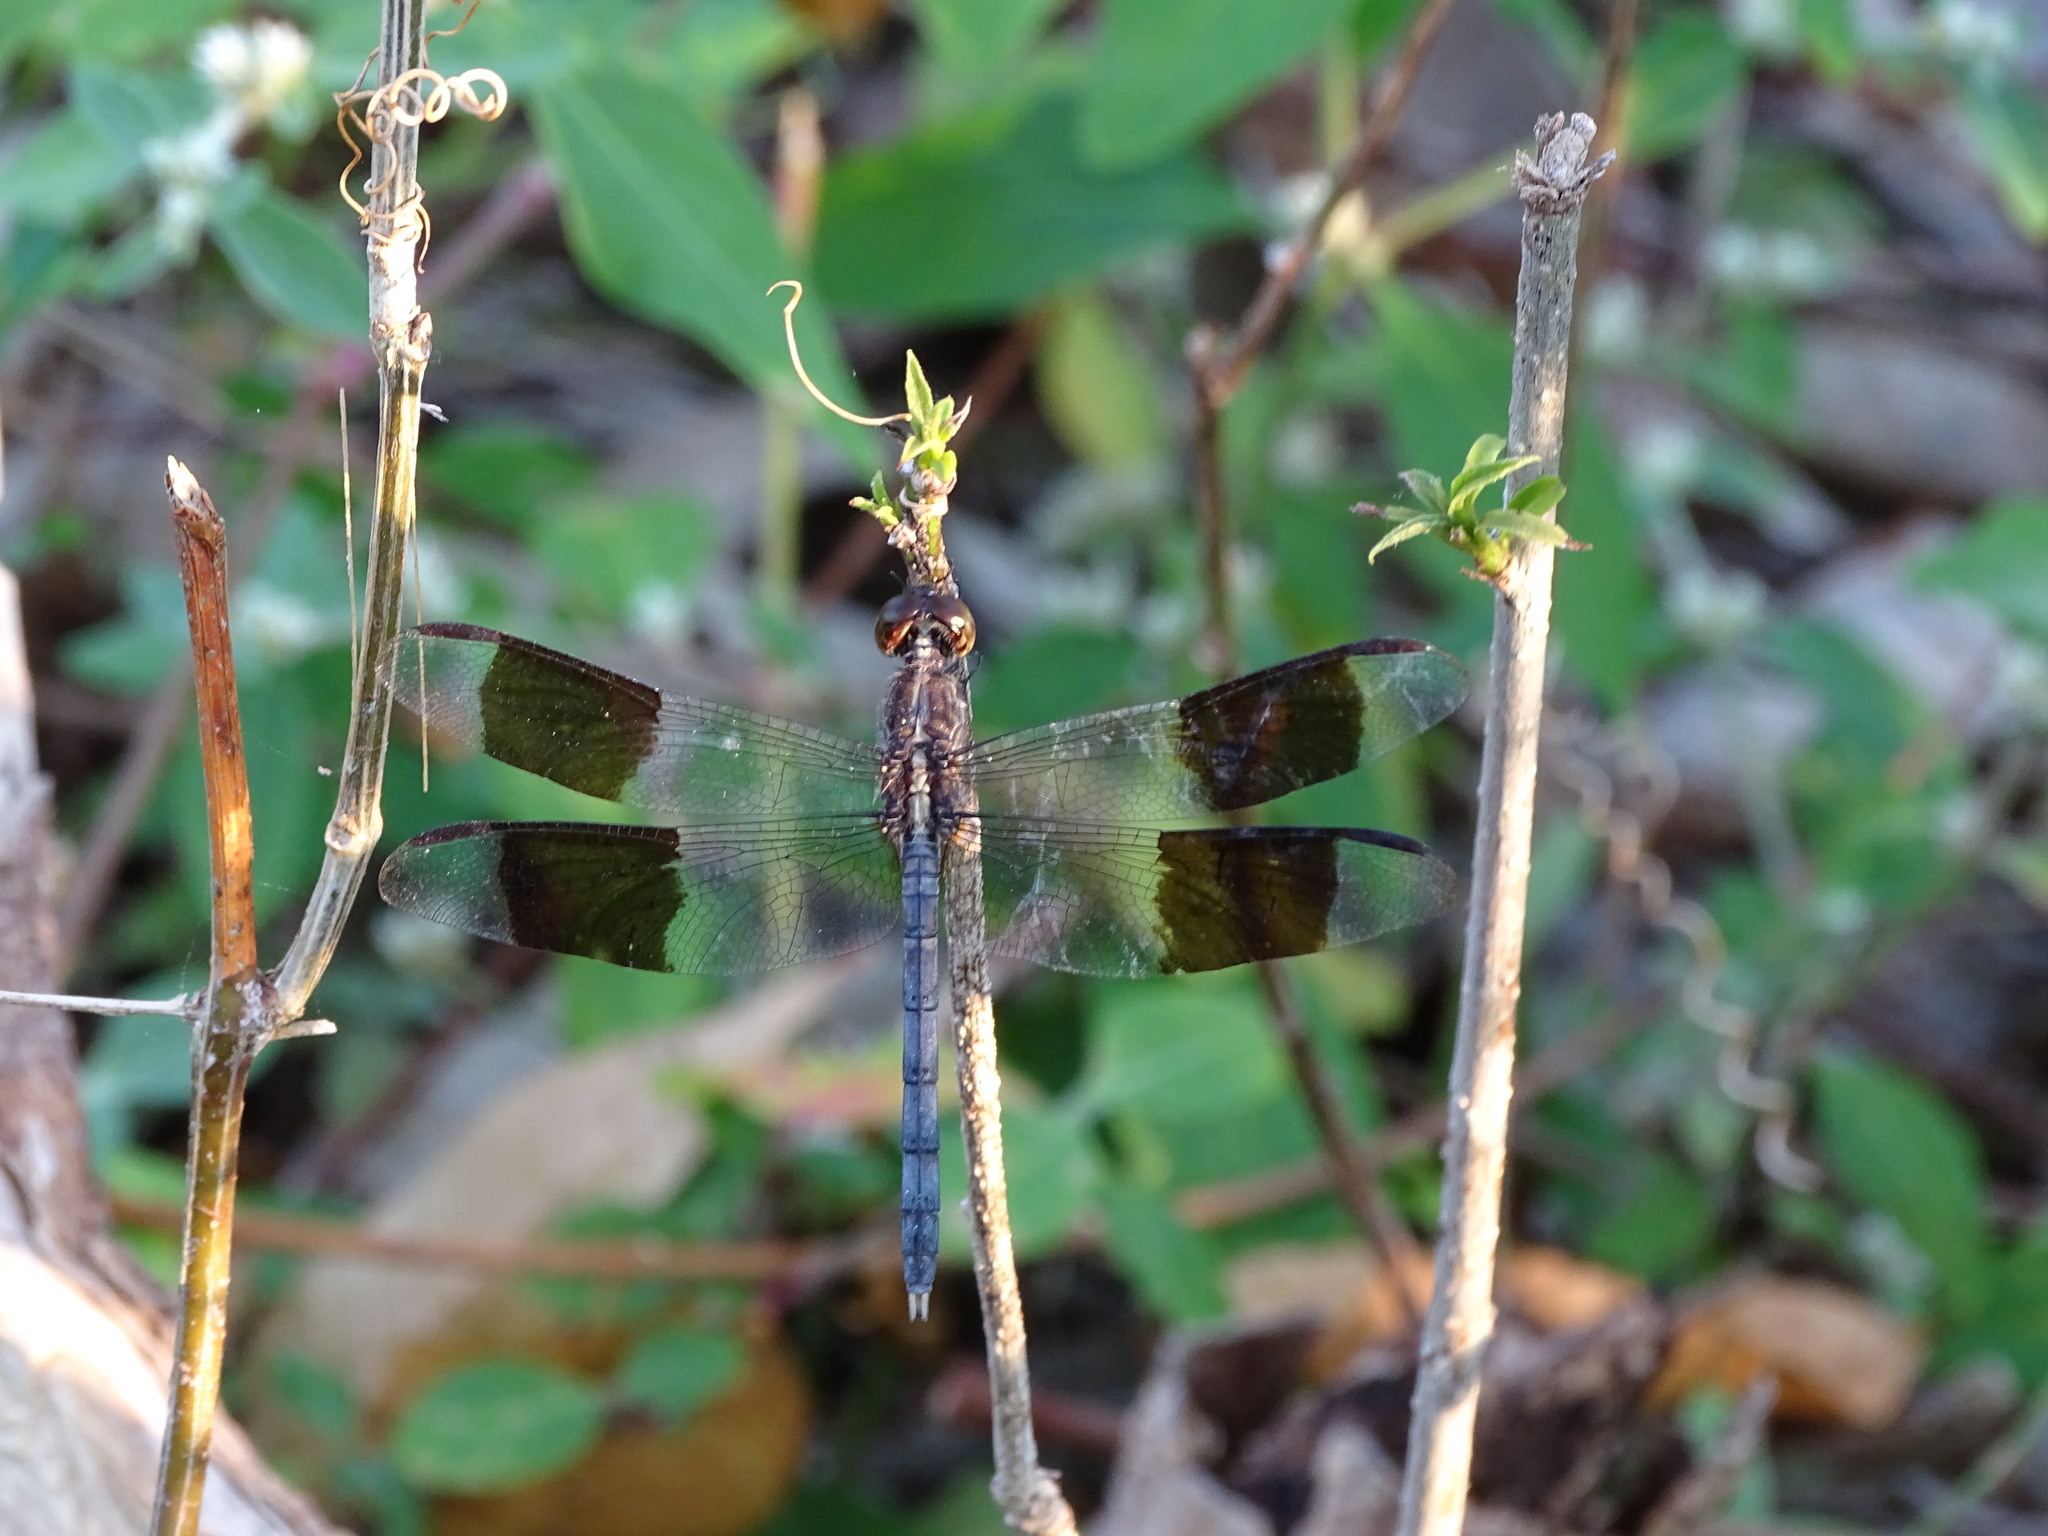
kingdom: Animalia
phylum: Arthropoda
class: Insecta
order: Odonata
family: Libellulidae
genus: Erythrodiplax
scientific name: Erythrodiplax umbrata
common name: Band-winged dragonlet
